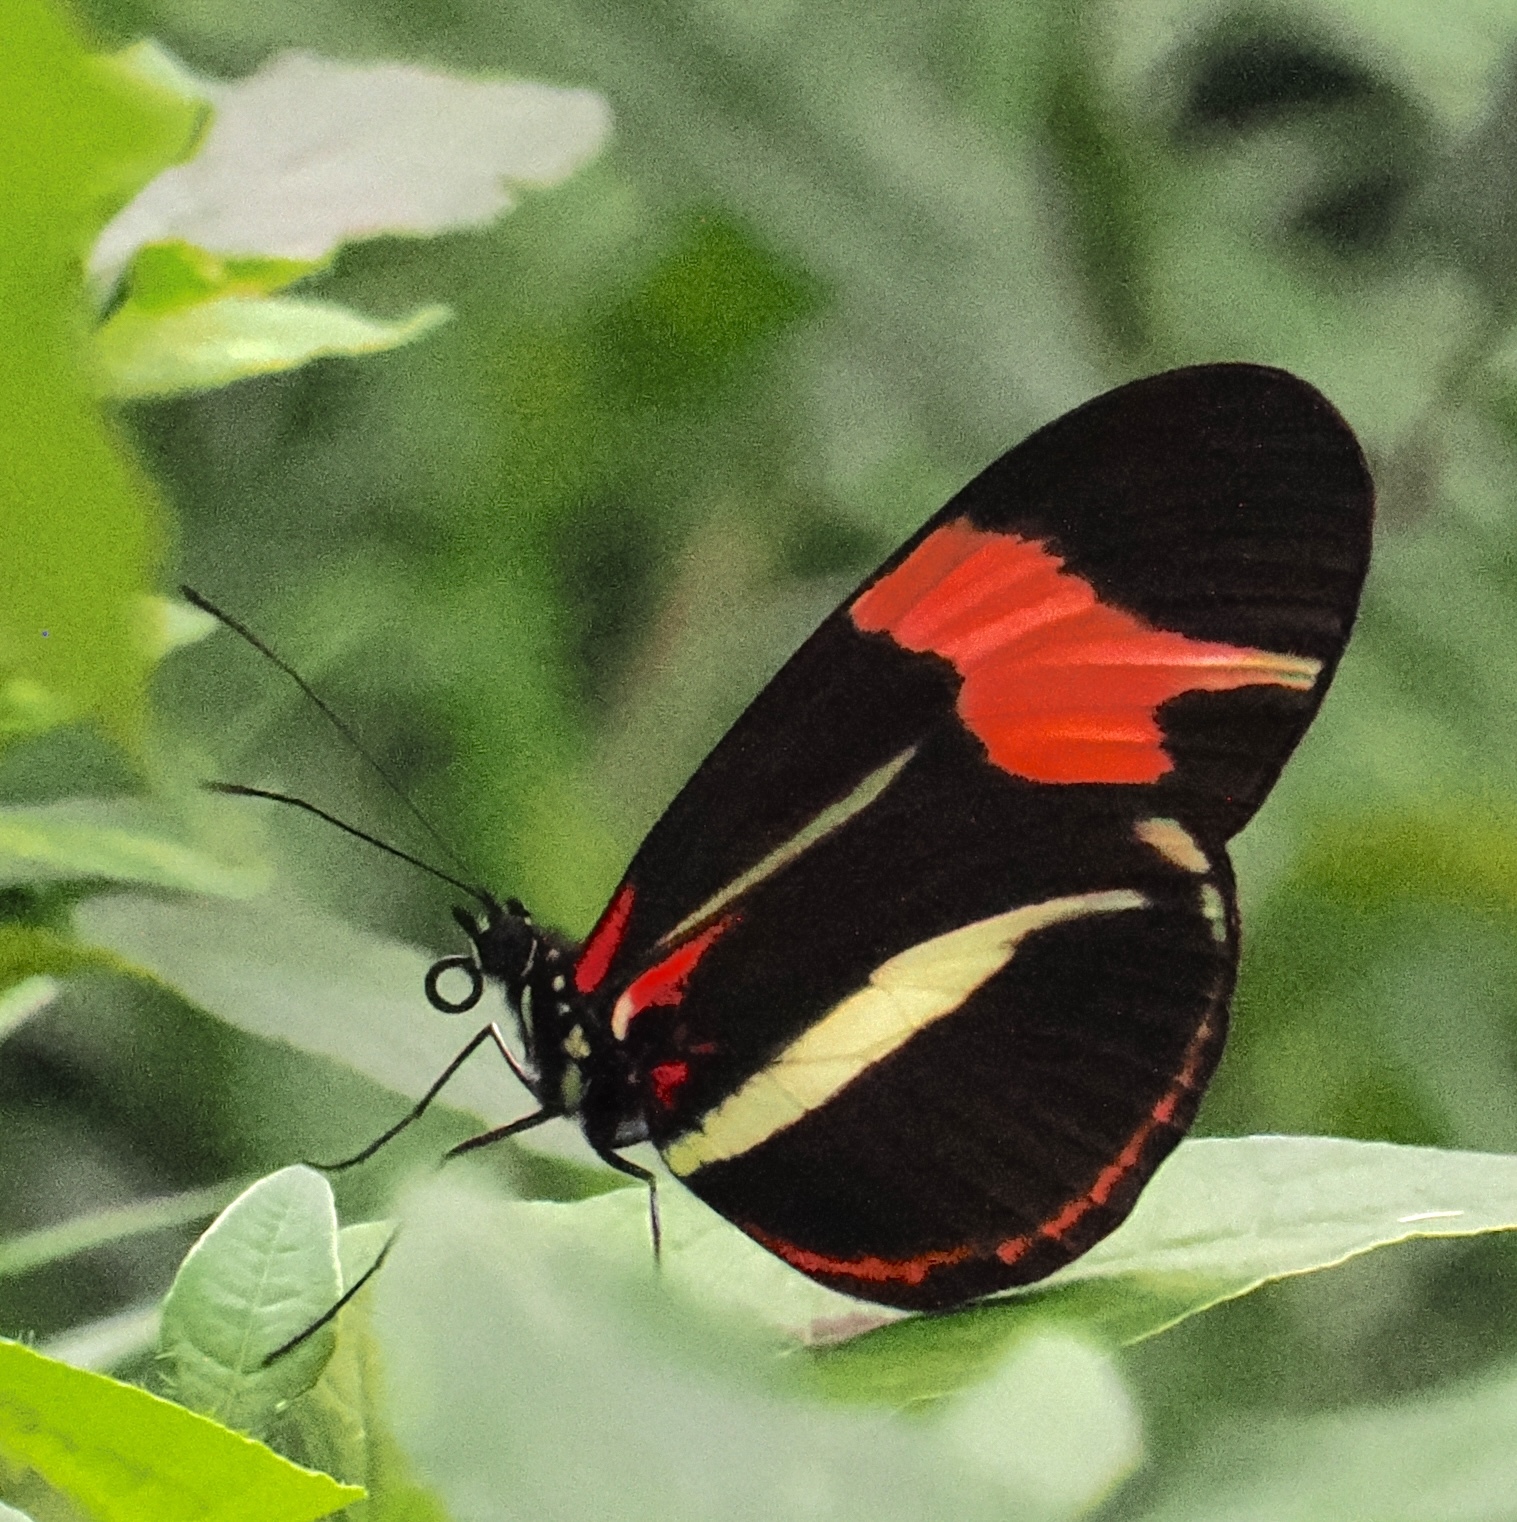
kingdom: Animalia
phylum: Arthropoda
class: Insecta
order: Lepidoptera
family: Nymphalidae
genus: Heliconius
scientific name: Heliconius besckei
